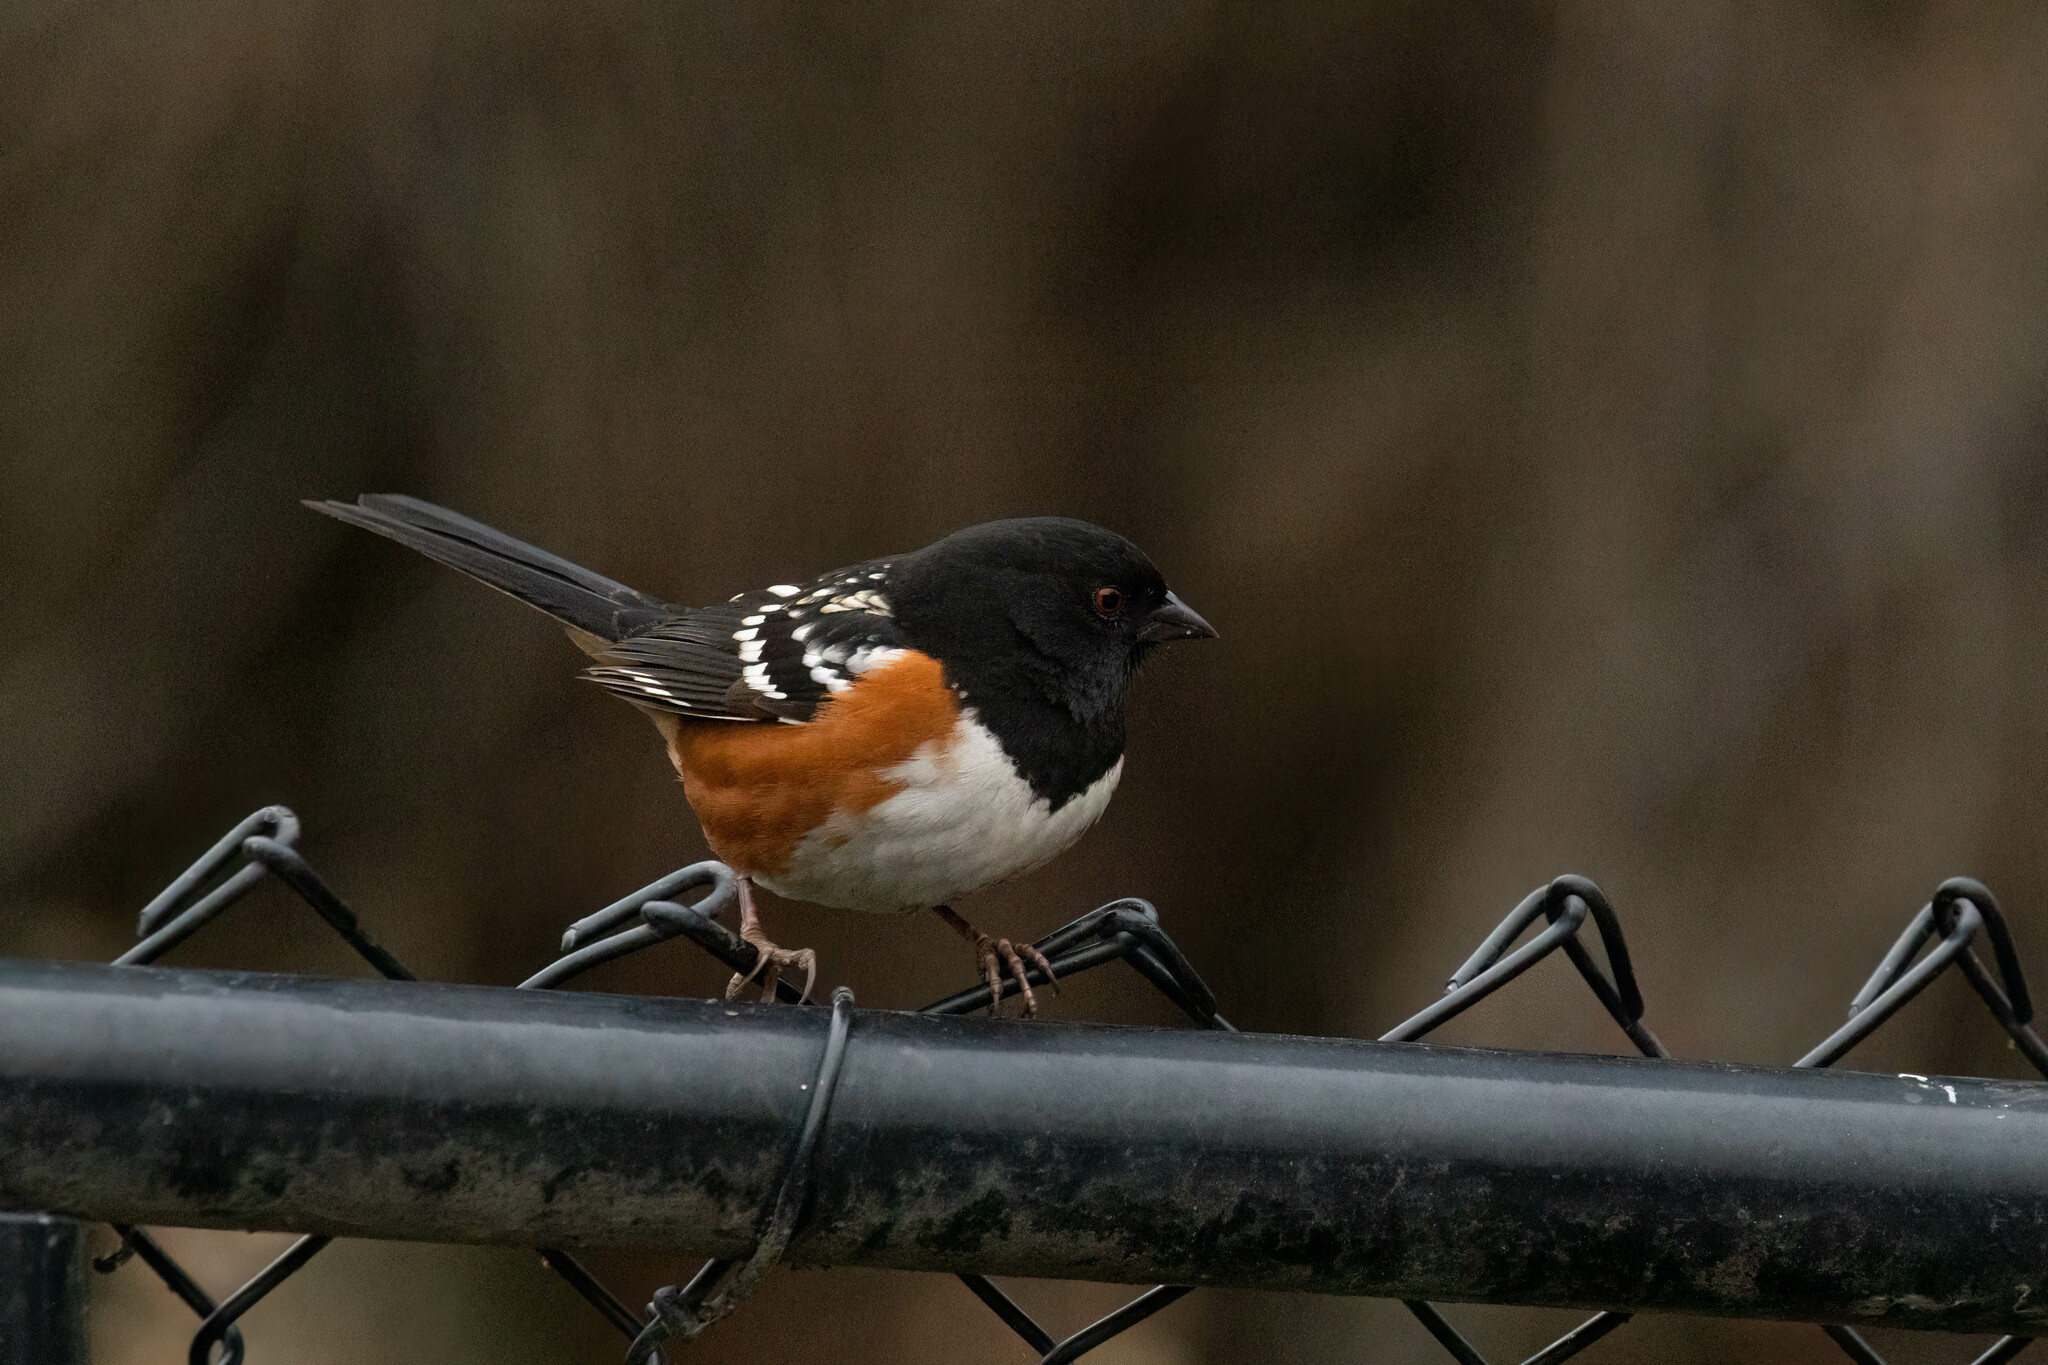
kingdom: Animalia
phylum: Chordata
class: Aves
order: Passeriformes
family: Passerellidae
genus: Pipilo
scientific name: Pipilo maculatus
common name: Spotted towhee
